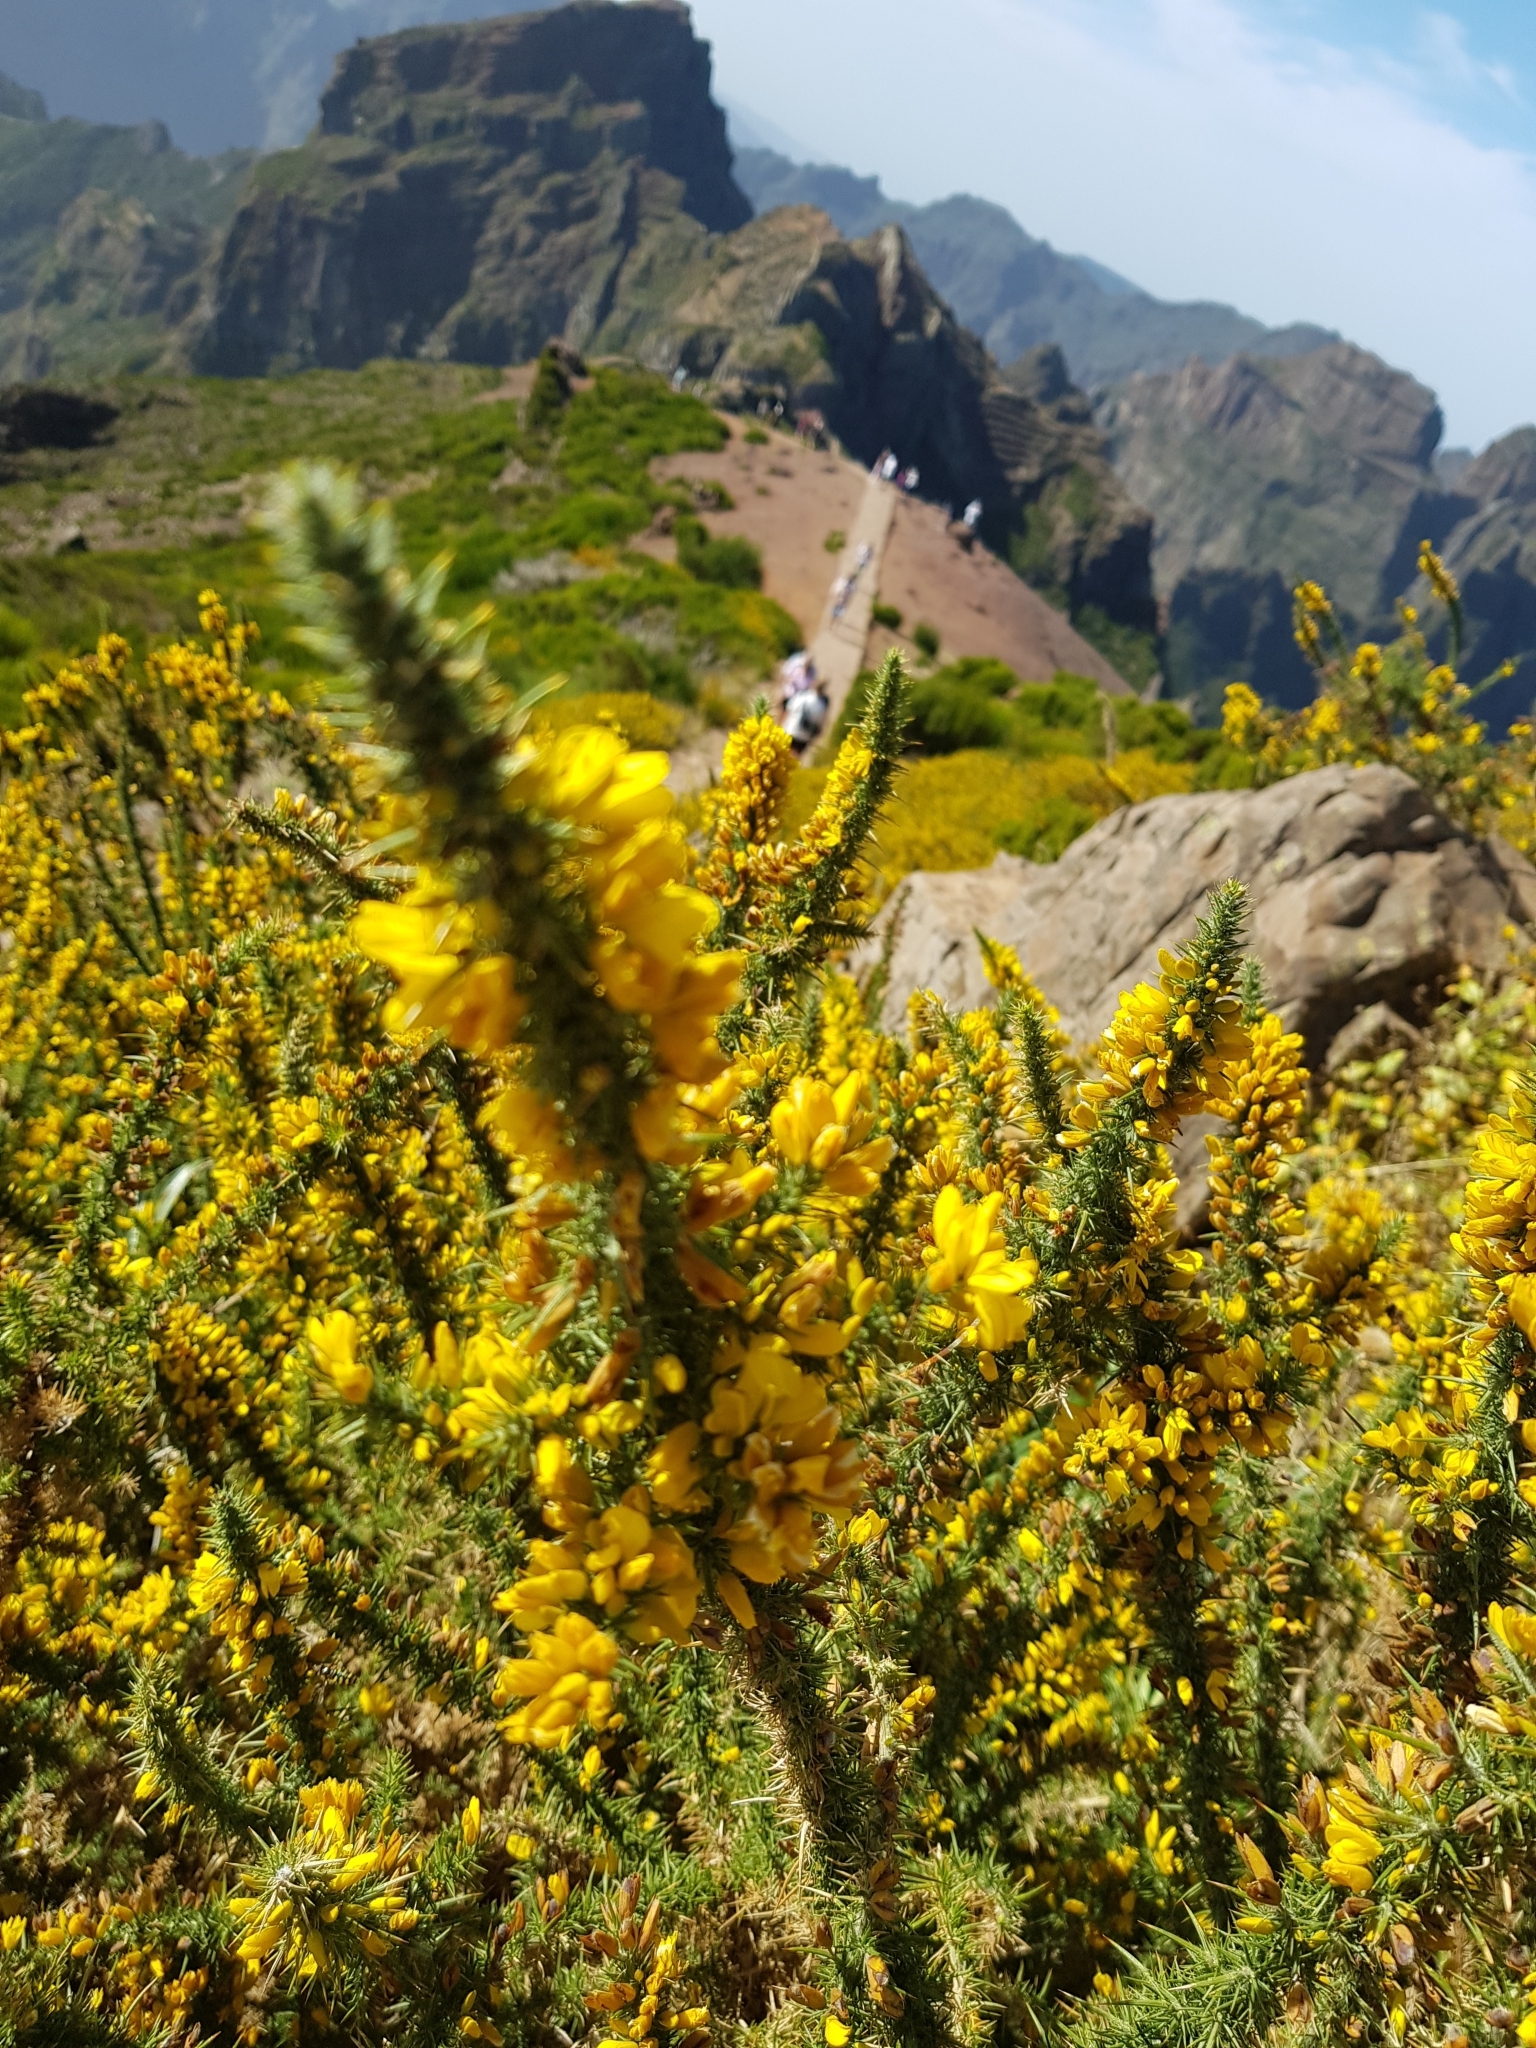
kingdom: Plantae
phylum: Tracheophyta
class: Magnoliopsida
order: Fabales
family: Fabaceae
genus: Ulex
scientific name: Ulex europaeus
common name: Common gorse
